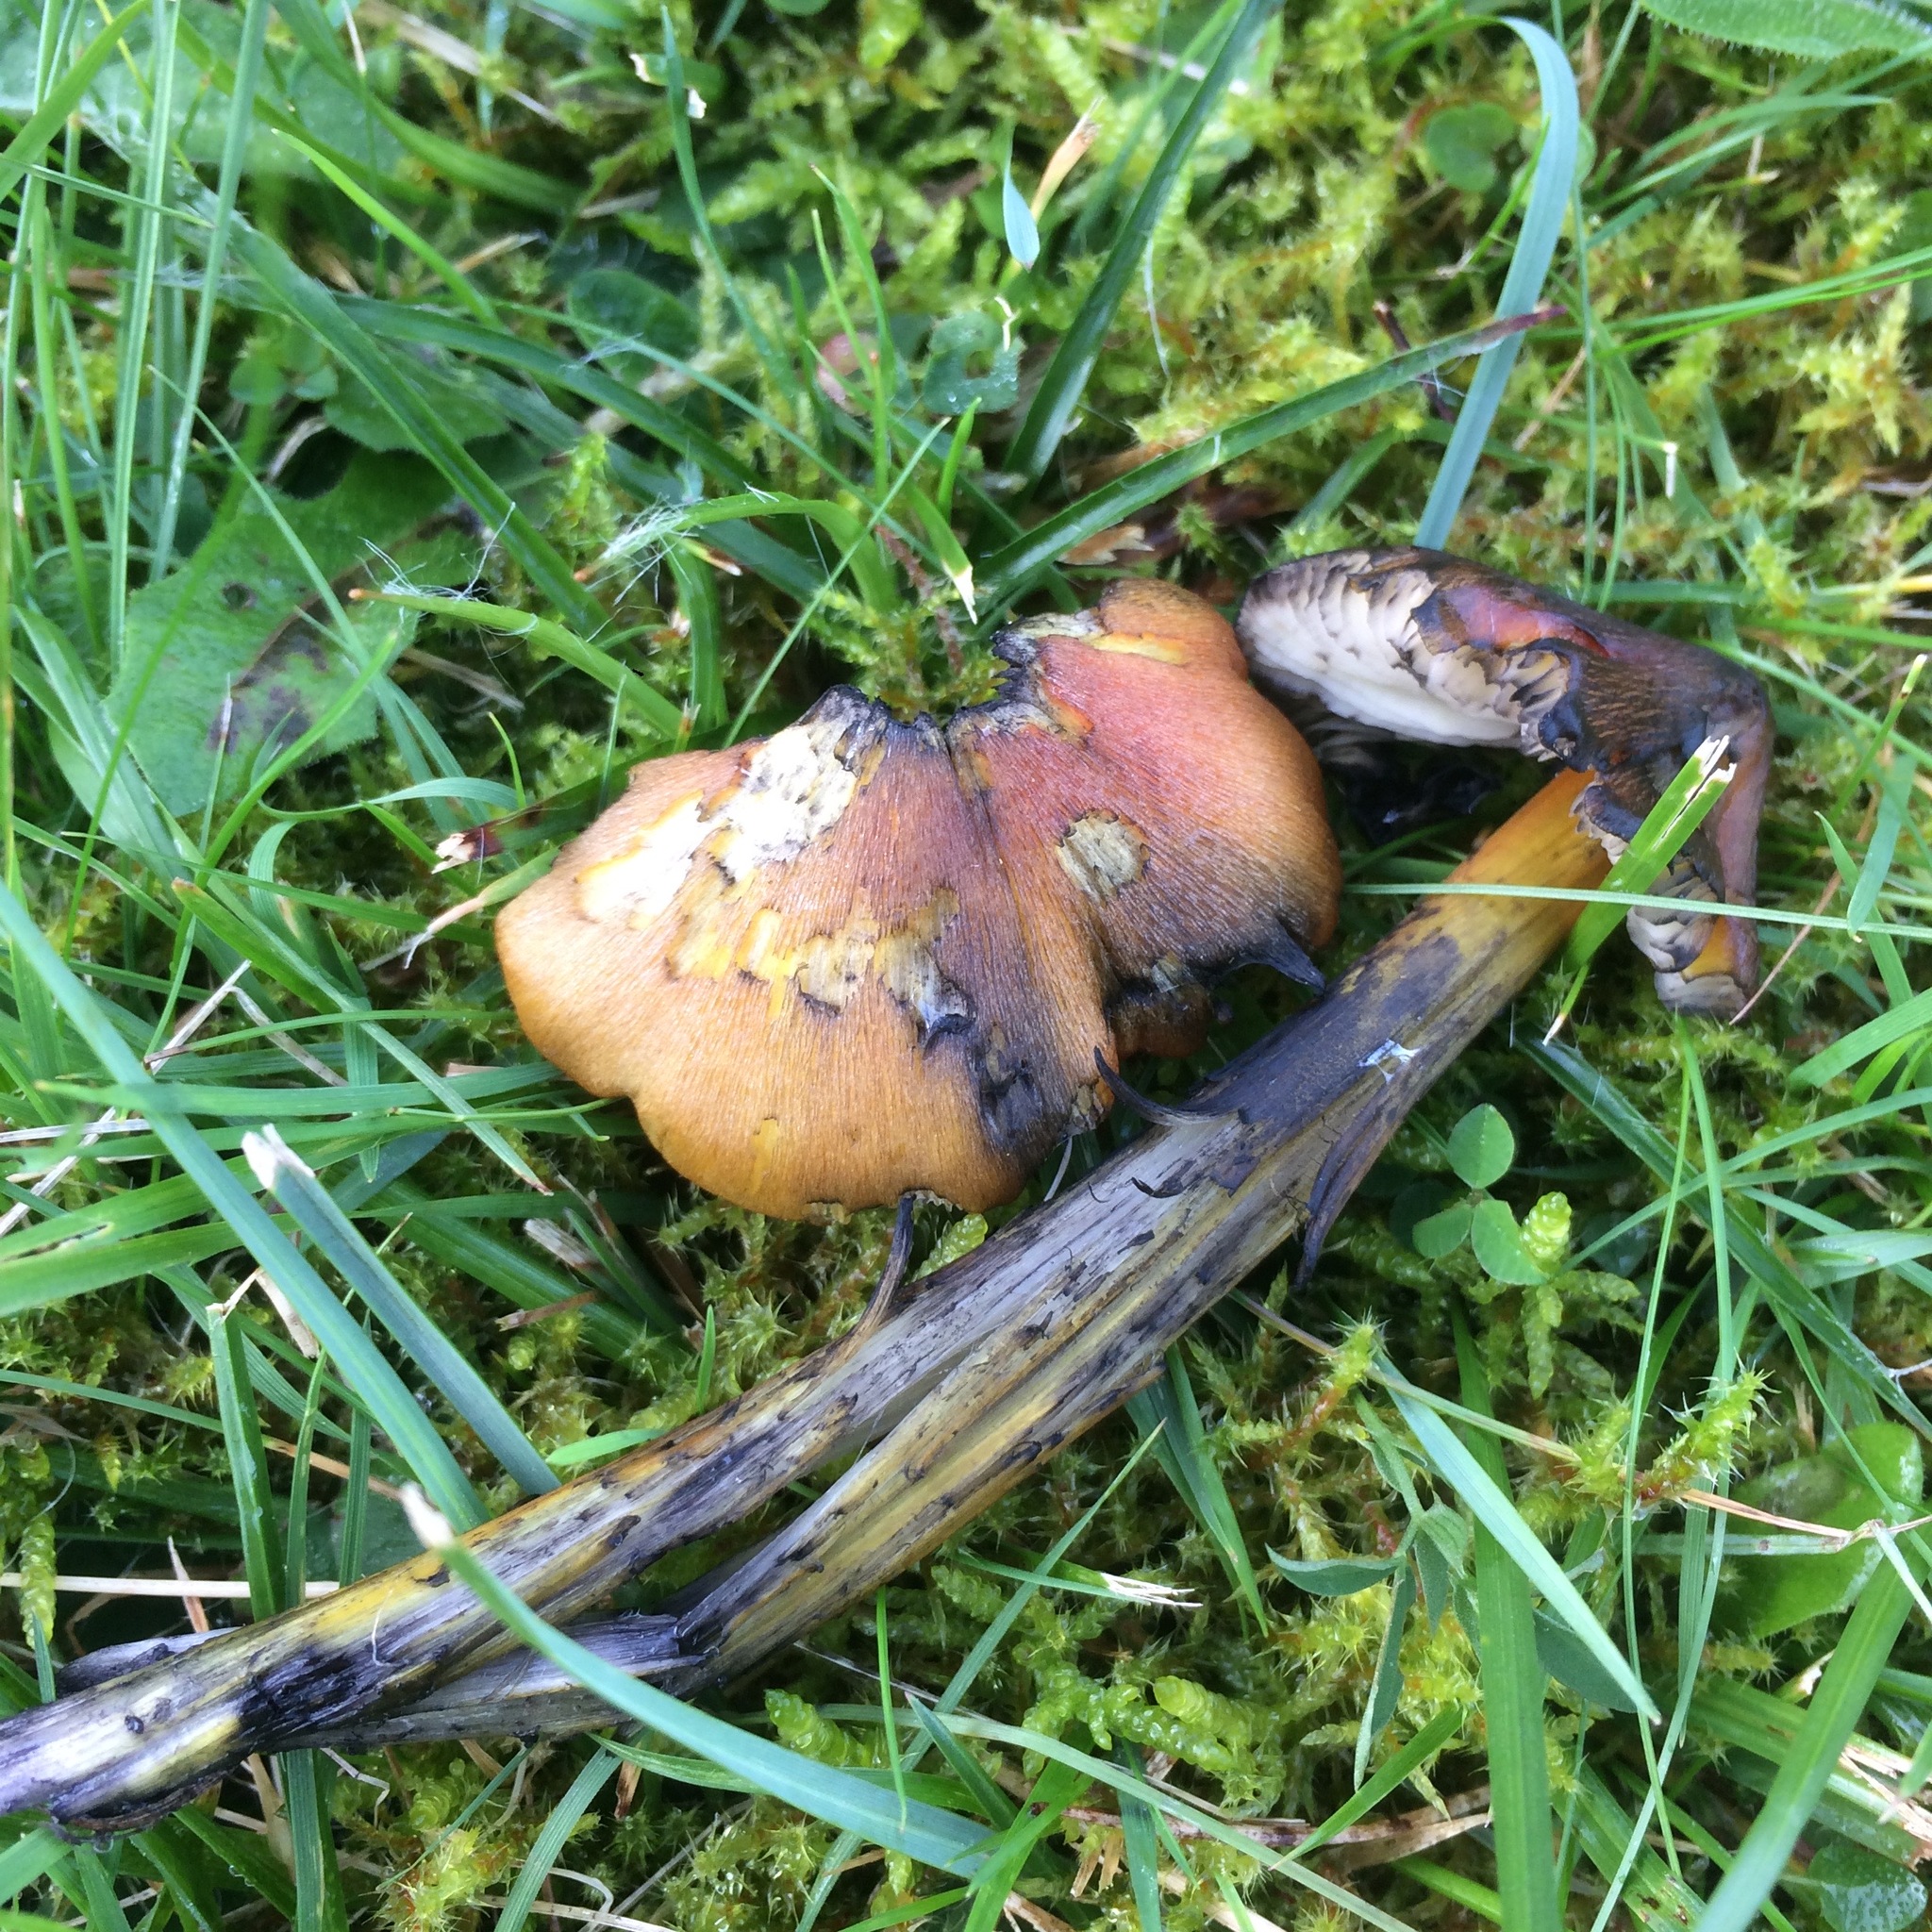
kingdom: Fungi
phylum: Basidiomycota
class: Agaricomycetes
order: Agaricales
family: Hygrophoraceae
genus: Hygrocybe
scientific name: Hygrocybe nigrescens
